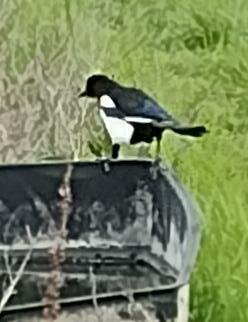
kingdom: Animalia
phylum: Chordata
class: Aves
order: Passeriformes
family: Corvidae
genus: Pica
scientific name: Pica pica
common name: Eurasian magpie
